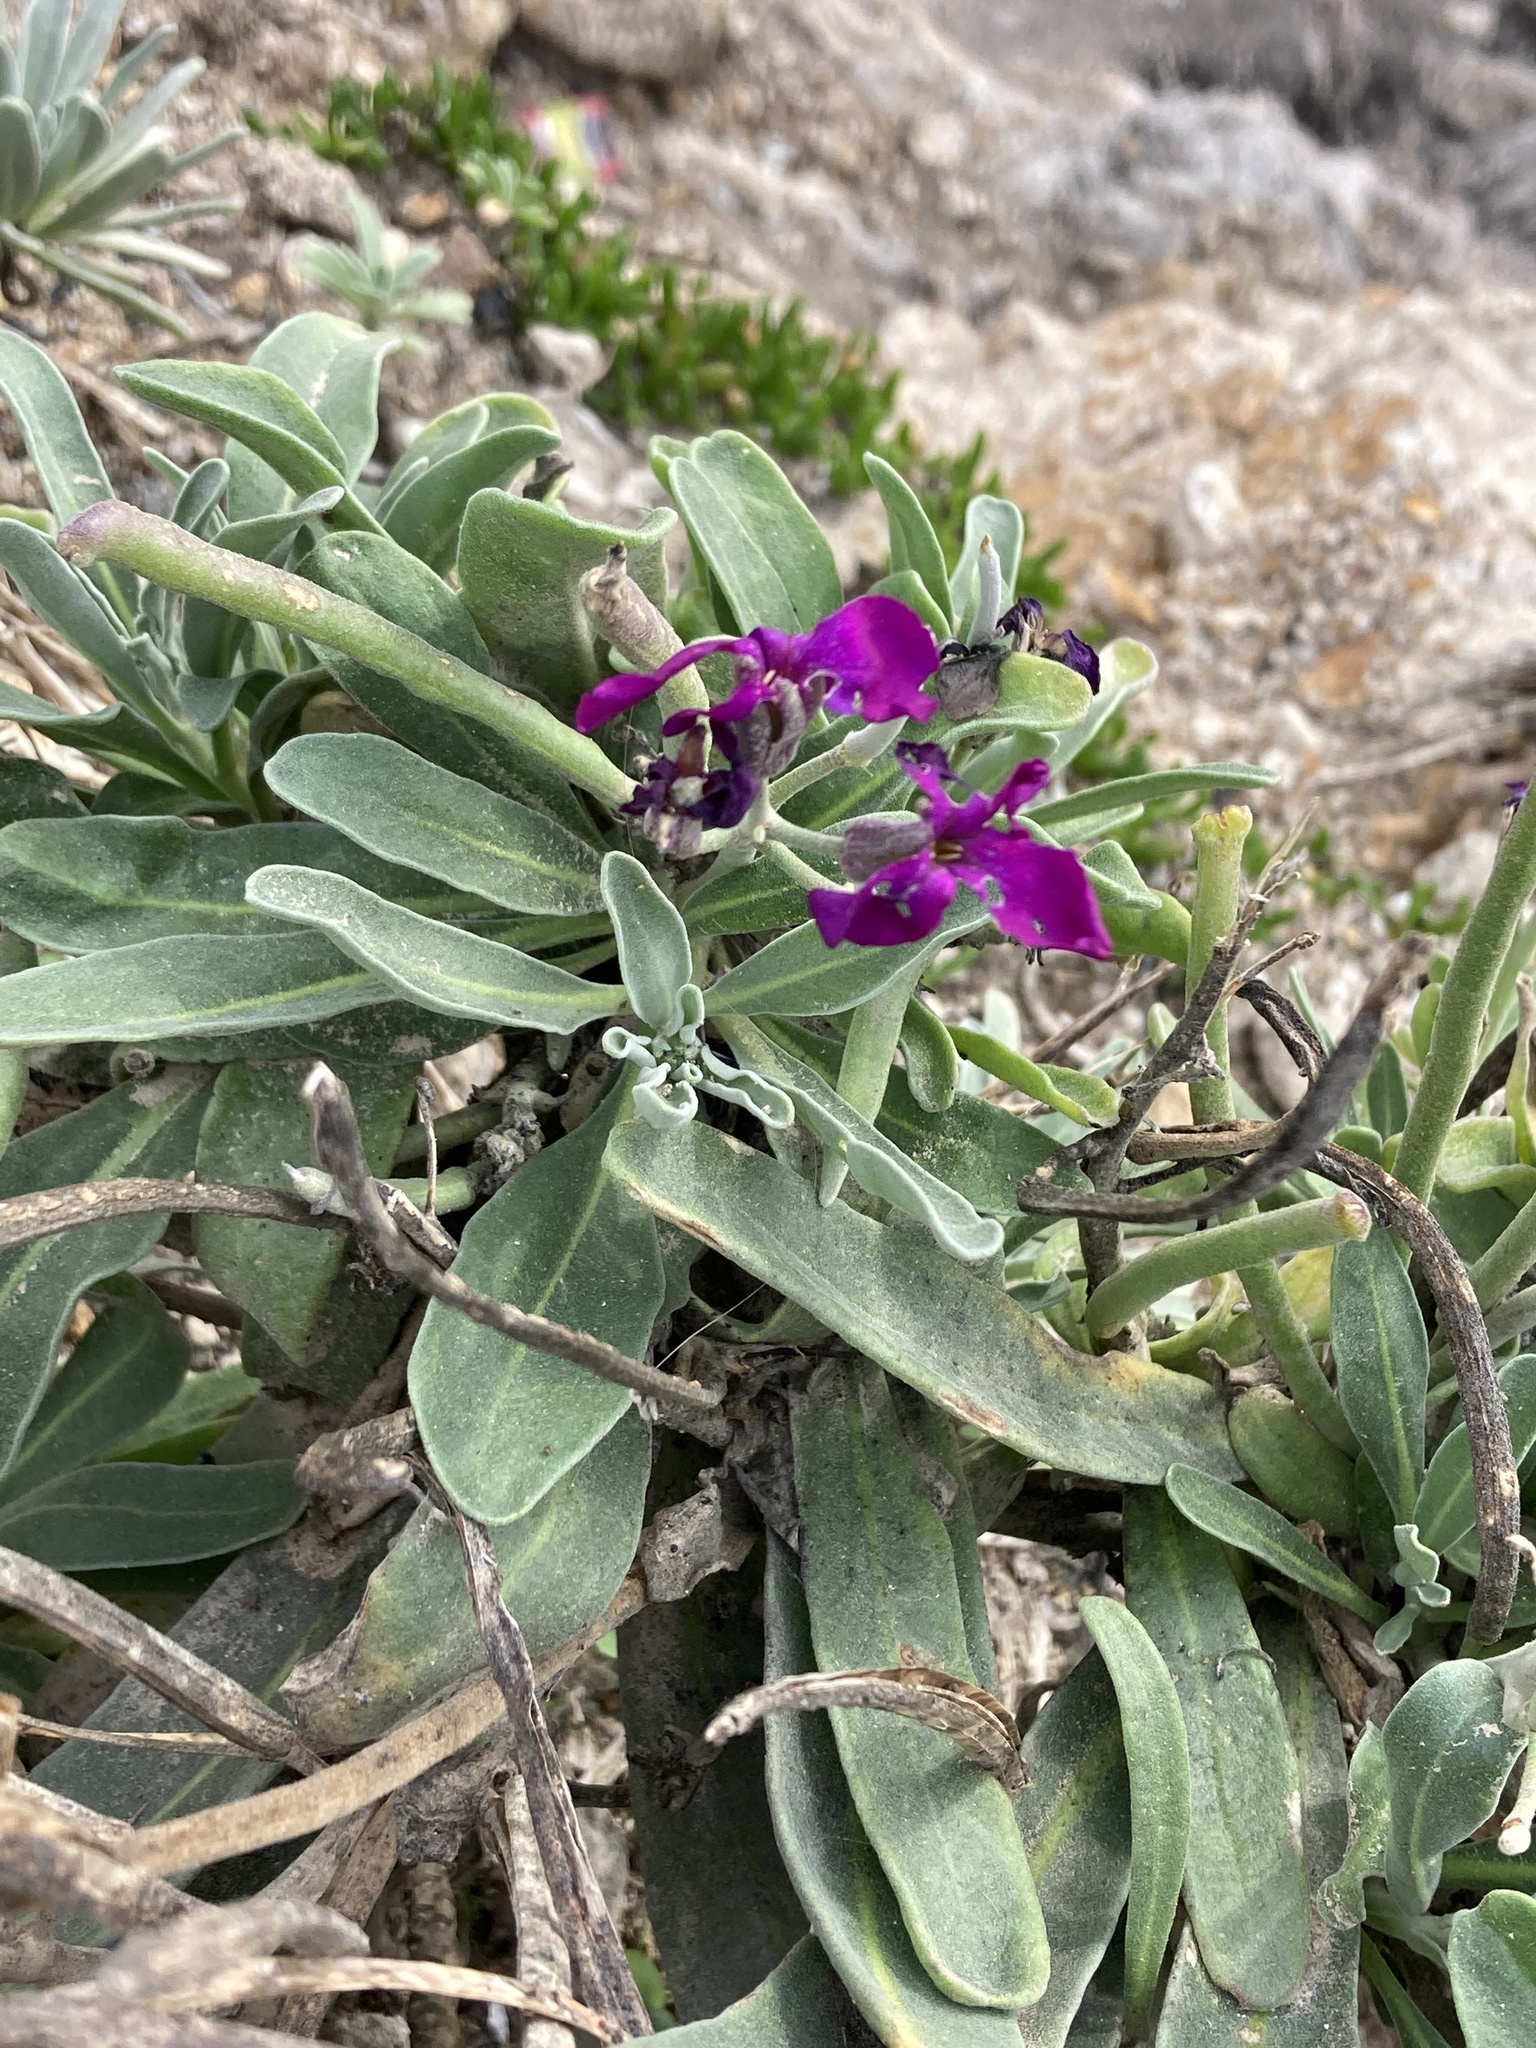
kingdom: Plantae
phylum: Tracheophyta
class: Magnoliopsida
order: Brassicales
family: Brassicaceae
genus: Matthiola
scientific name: Matthiola incana
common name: Hoary stock
